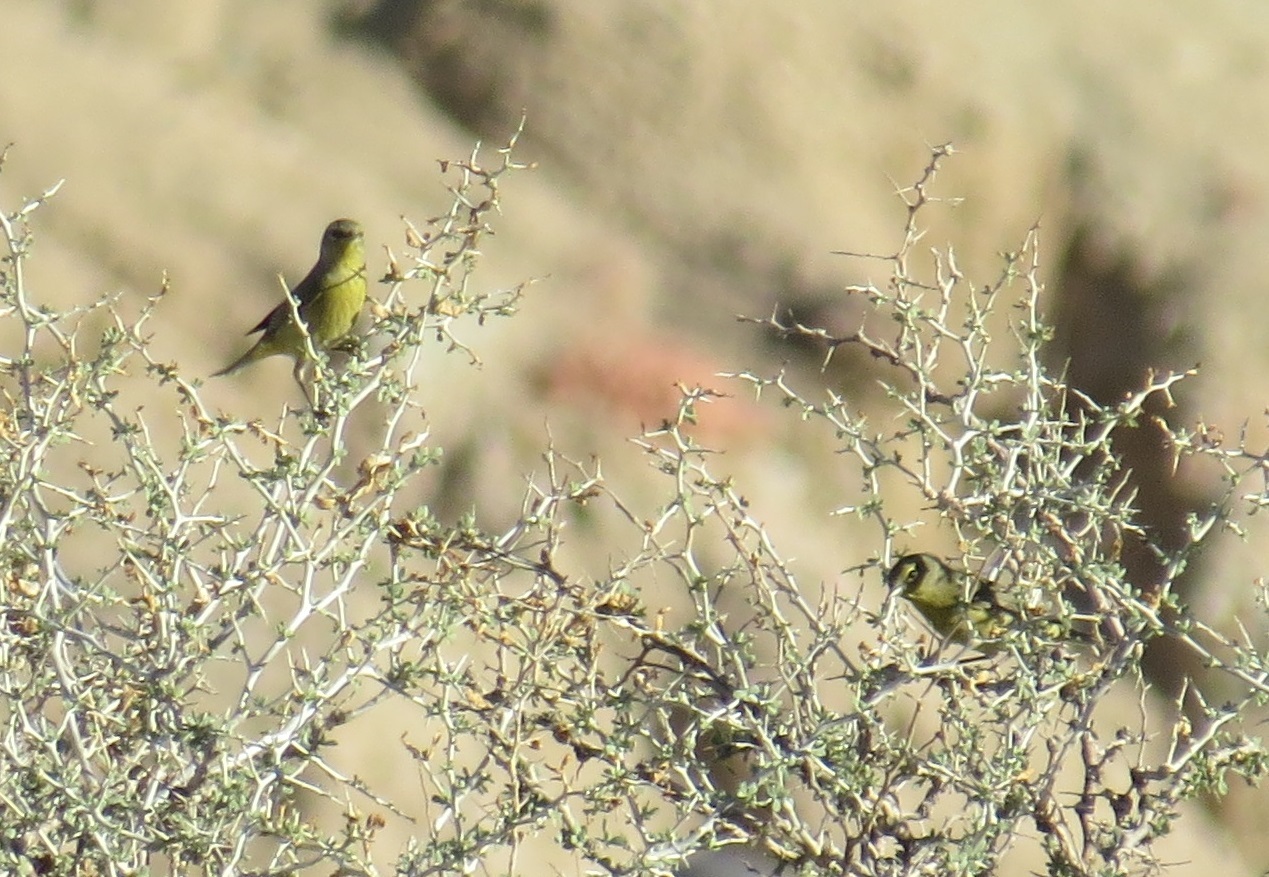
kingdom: Animalia
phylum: Chordata
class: Aves
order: Passeriformes
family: Parulidae
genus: Leiothlypis
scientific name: Leiothlypis celata
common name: Orange-crowned warbler
